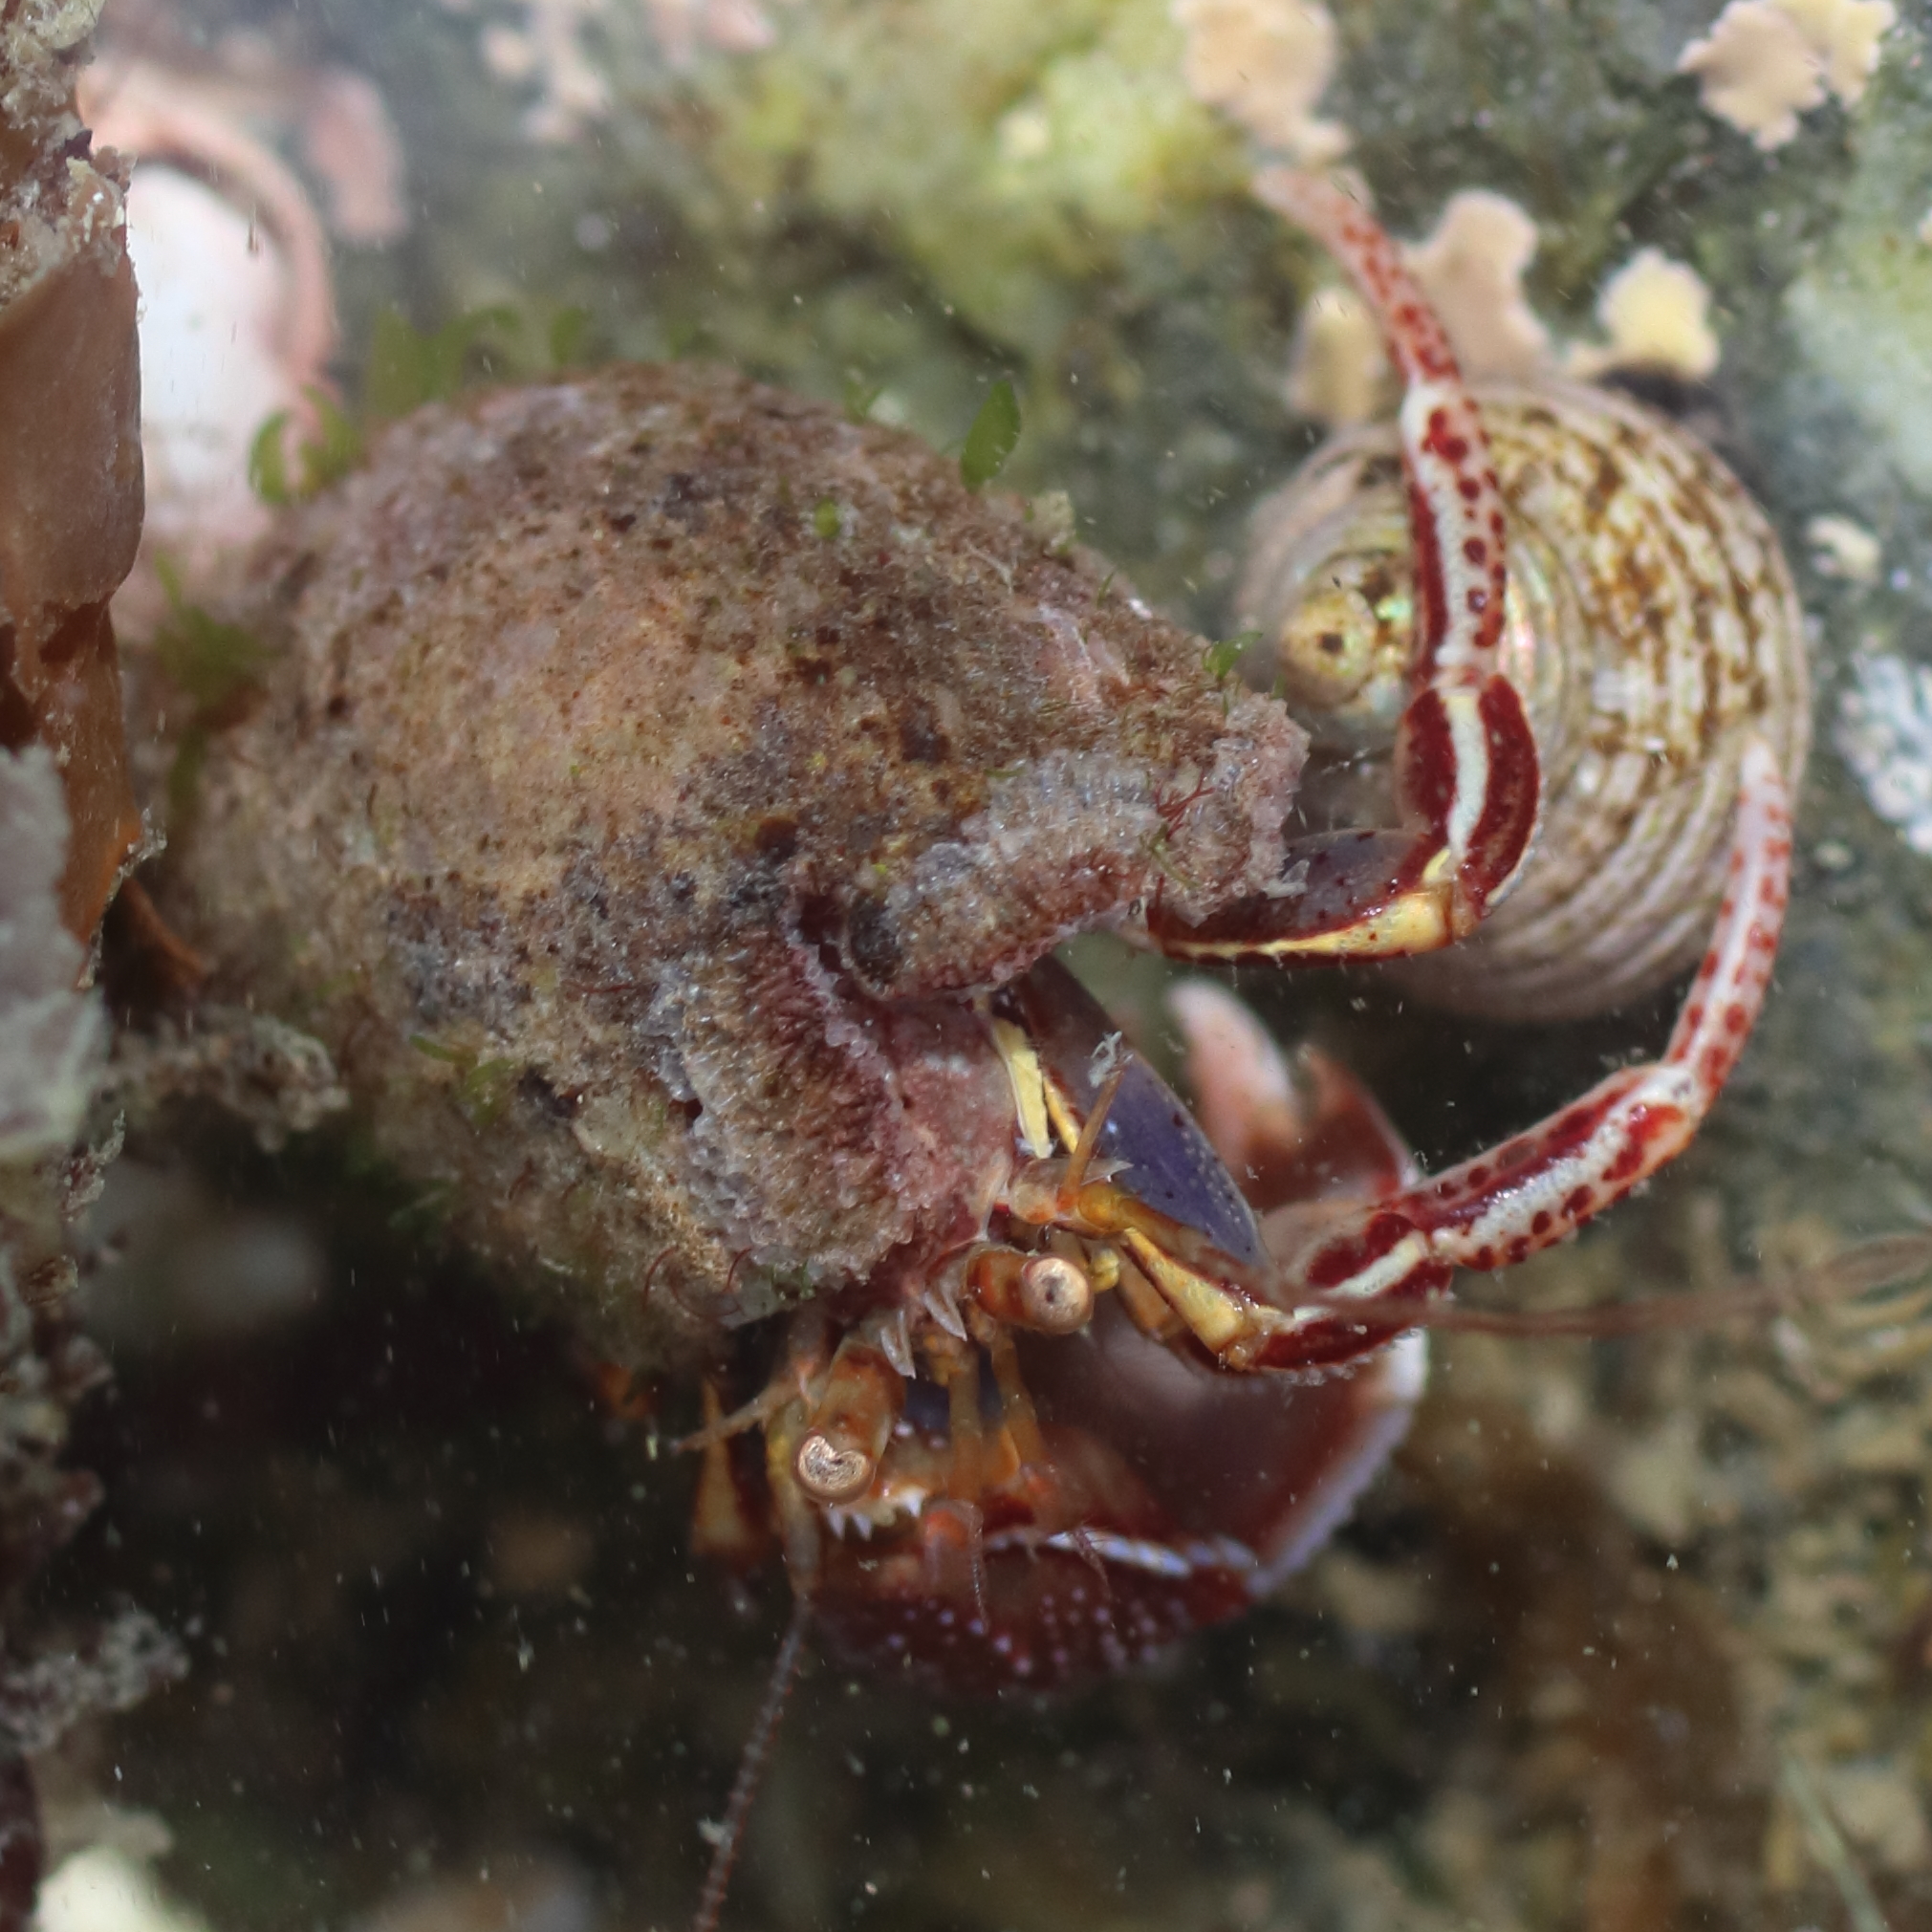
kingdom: Animalia
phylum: Arthropoda
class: Malacostraca
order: Decapoda
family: Paguridae
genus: Elassochirus
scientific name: Elassochirus tenuimanus
